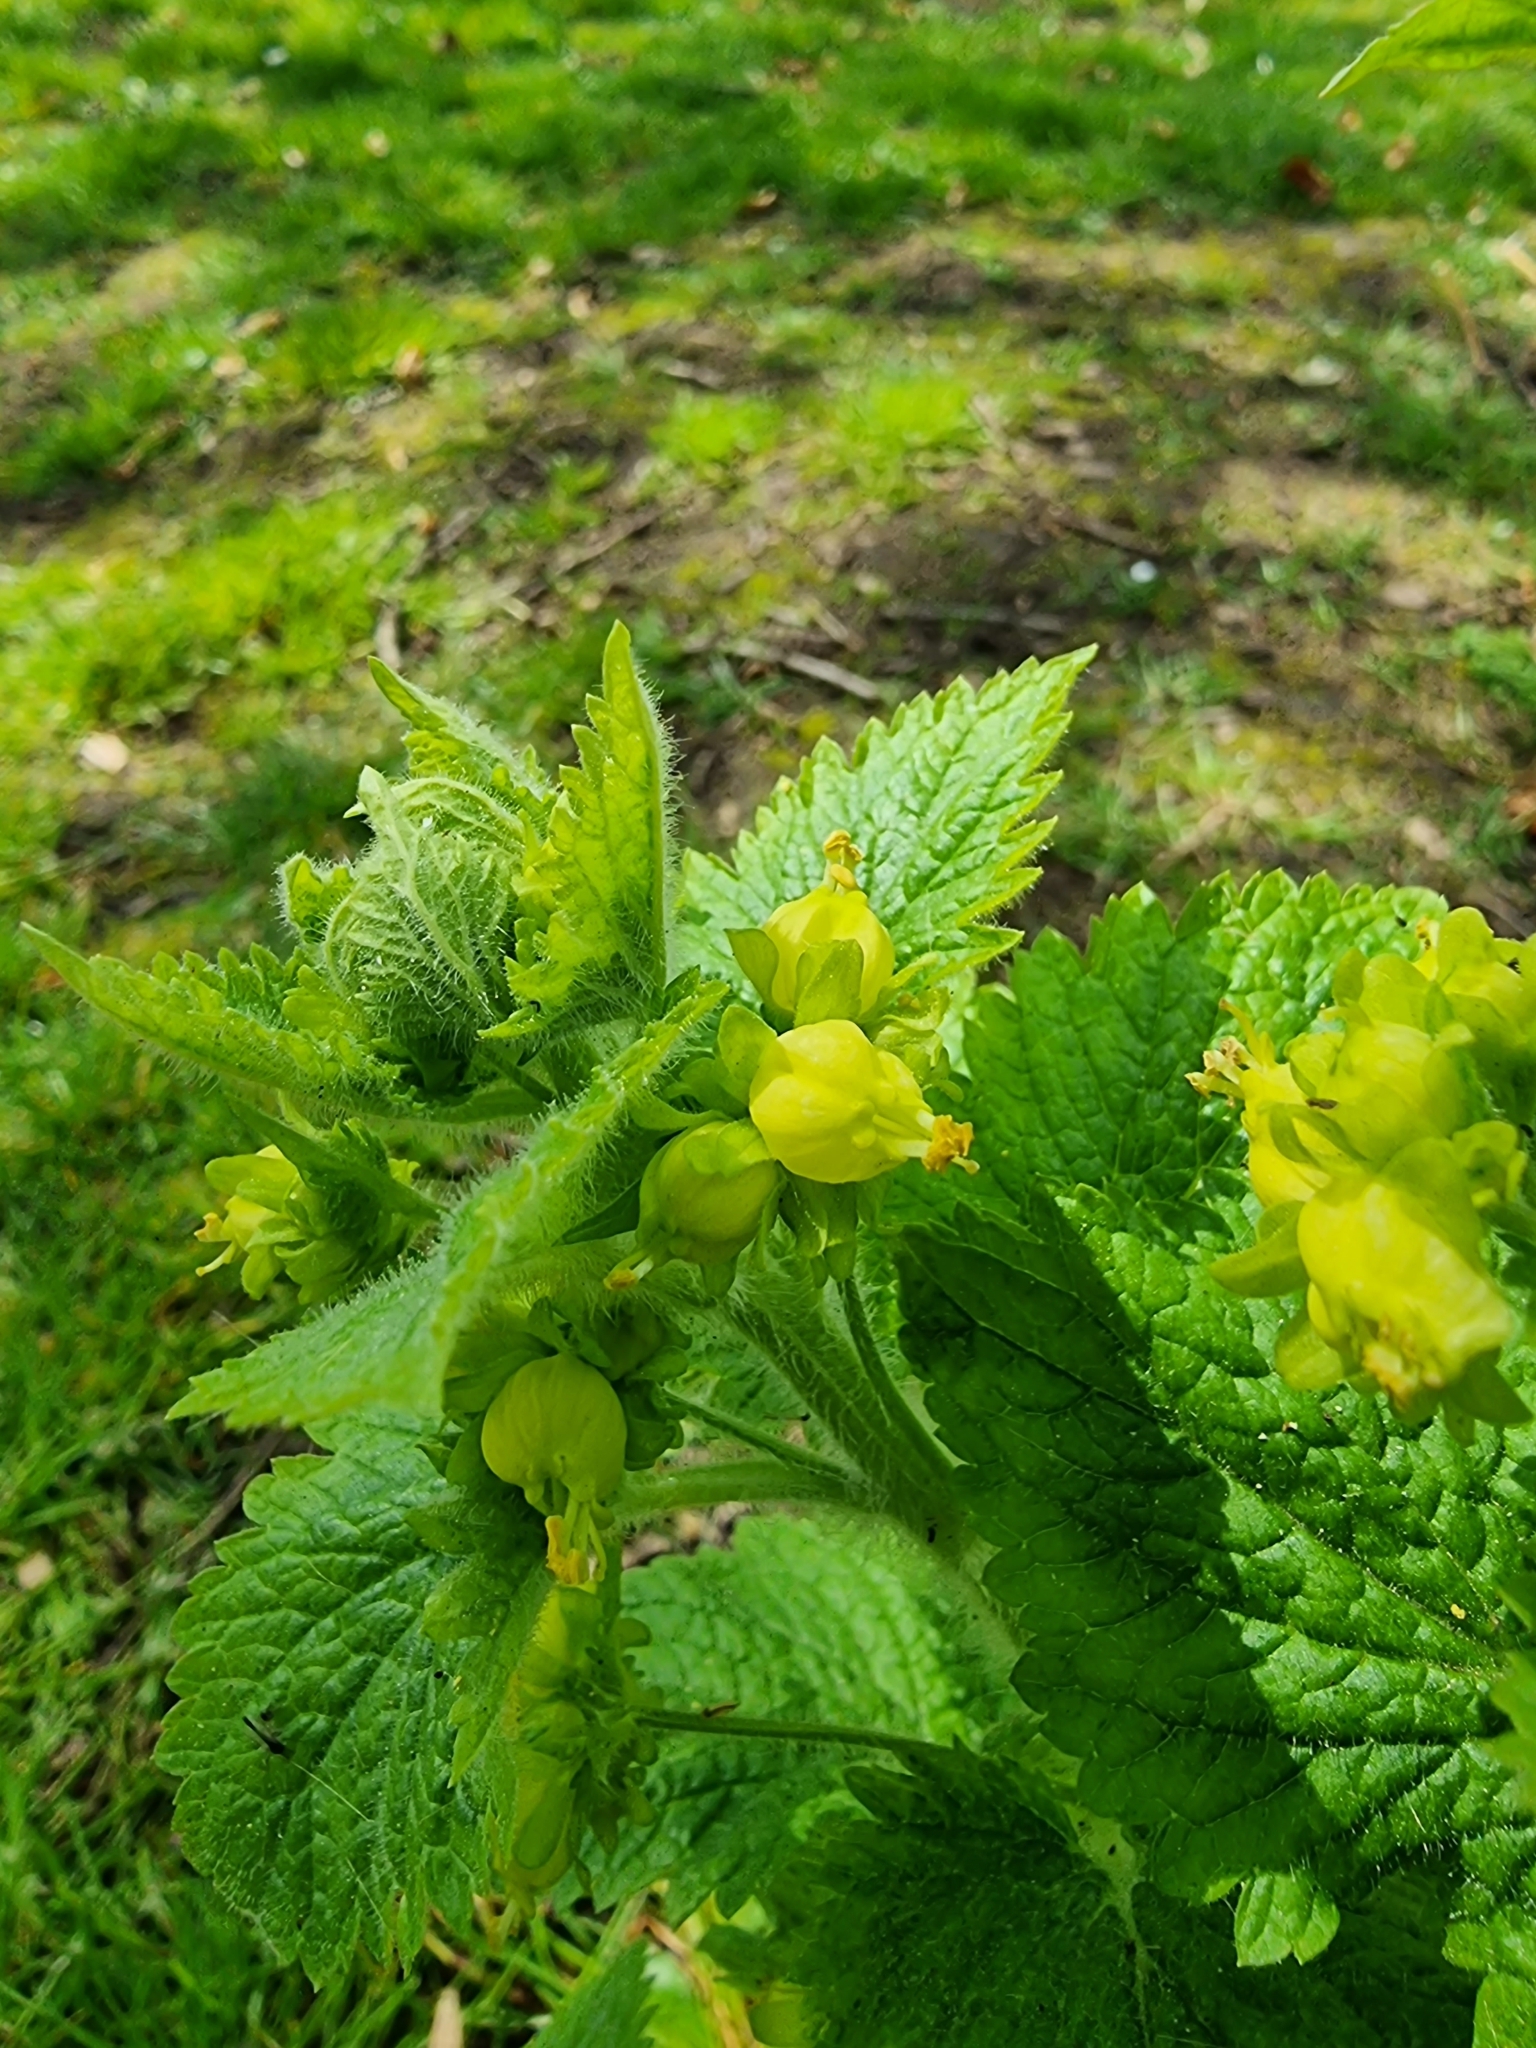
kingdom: Plantae
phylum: Tracheophyta
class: Magnoliopsida
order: Lamiales
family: Scrophulariaceae
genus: Scrophularia
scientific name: Scrophularia vernalis
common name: Yellow figwort
